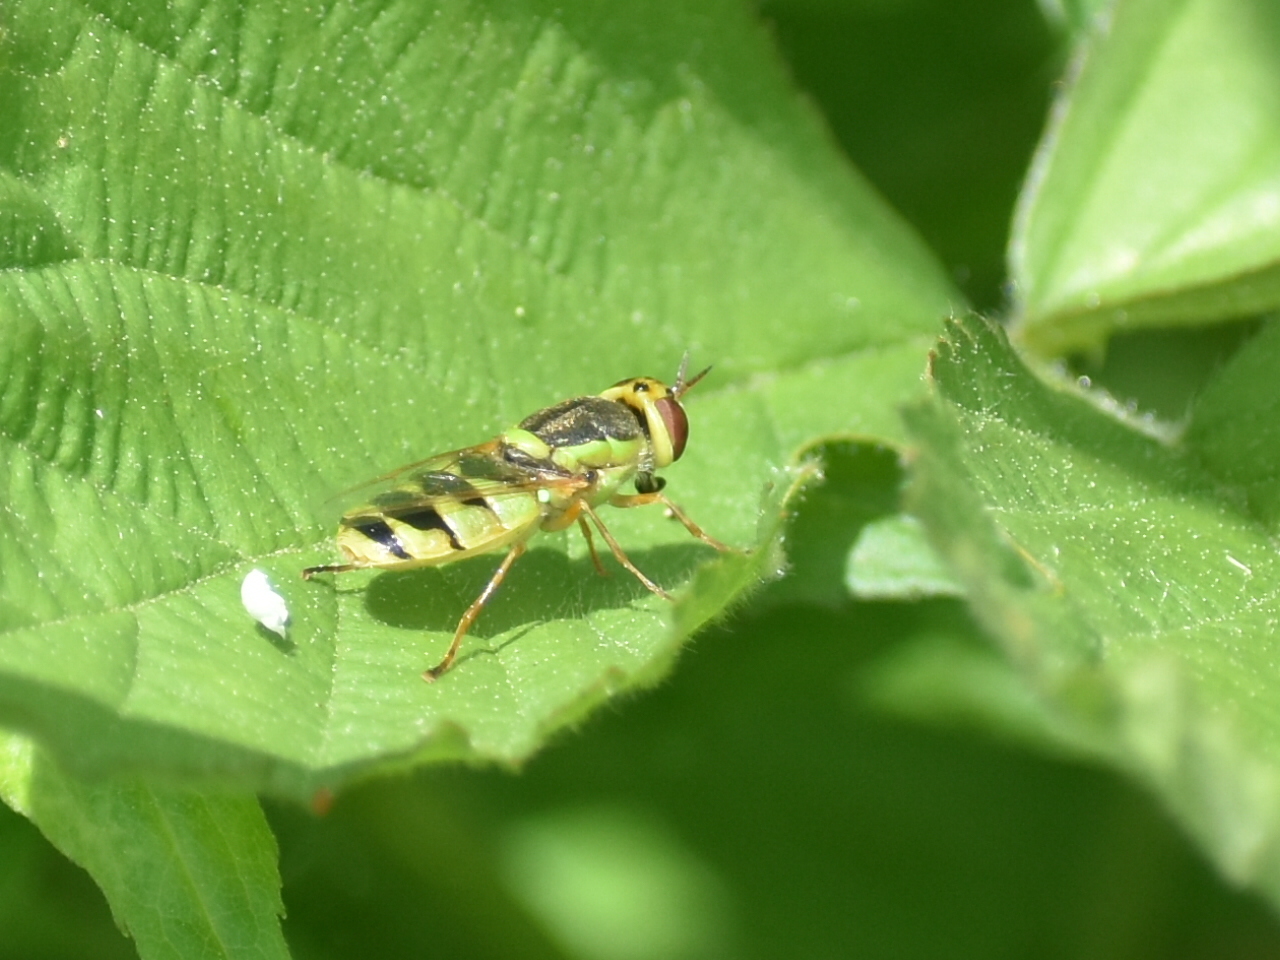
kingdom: Animalia
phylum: Arthropoda
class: Insecta
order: Diptera
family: Stratiomyidae
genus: Odontomyia
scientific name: Odontomyia cincta
